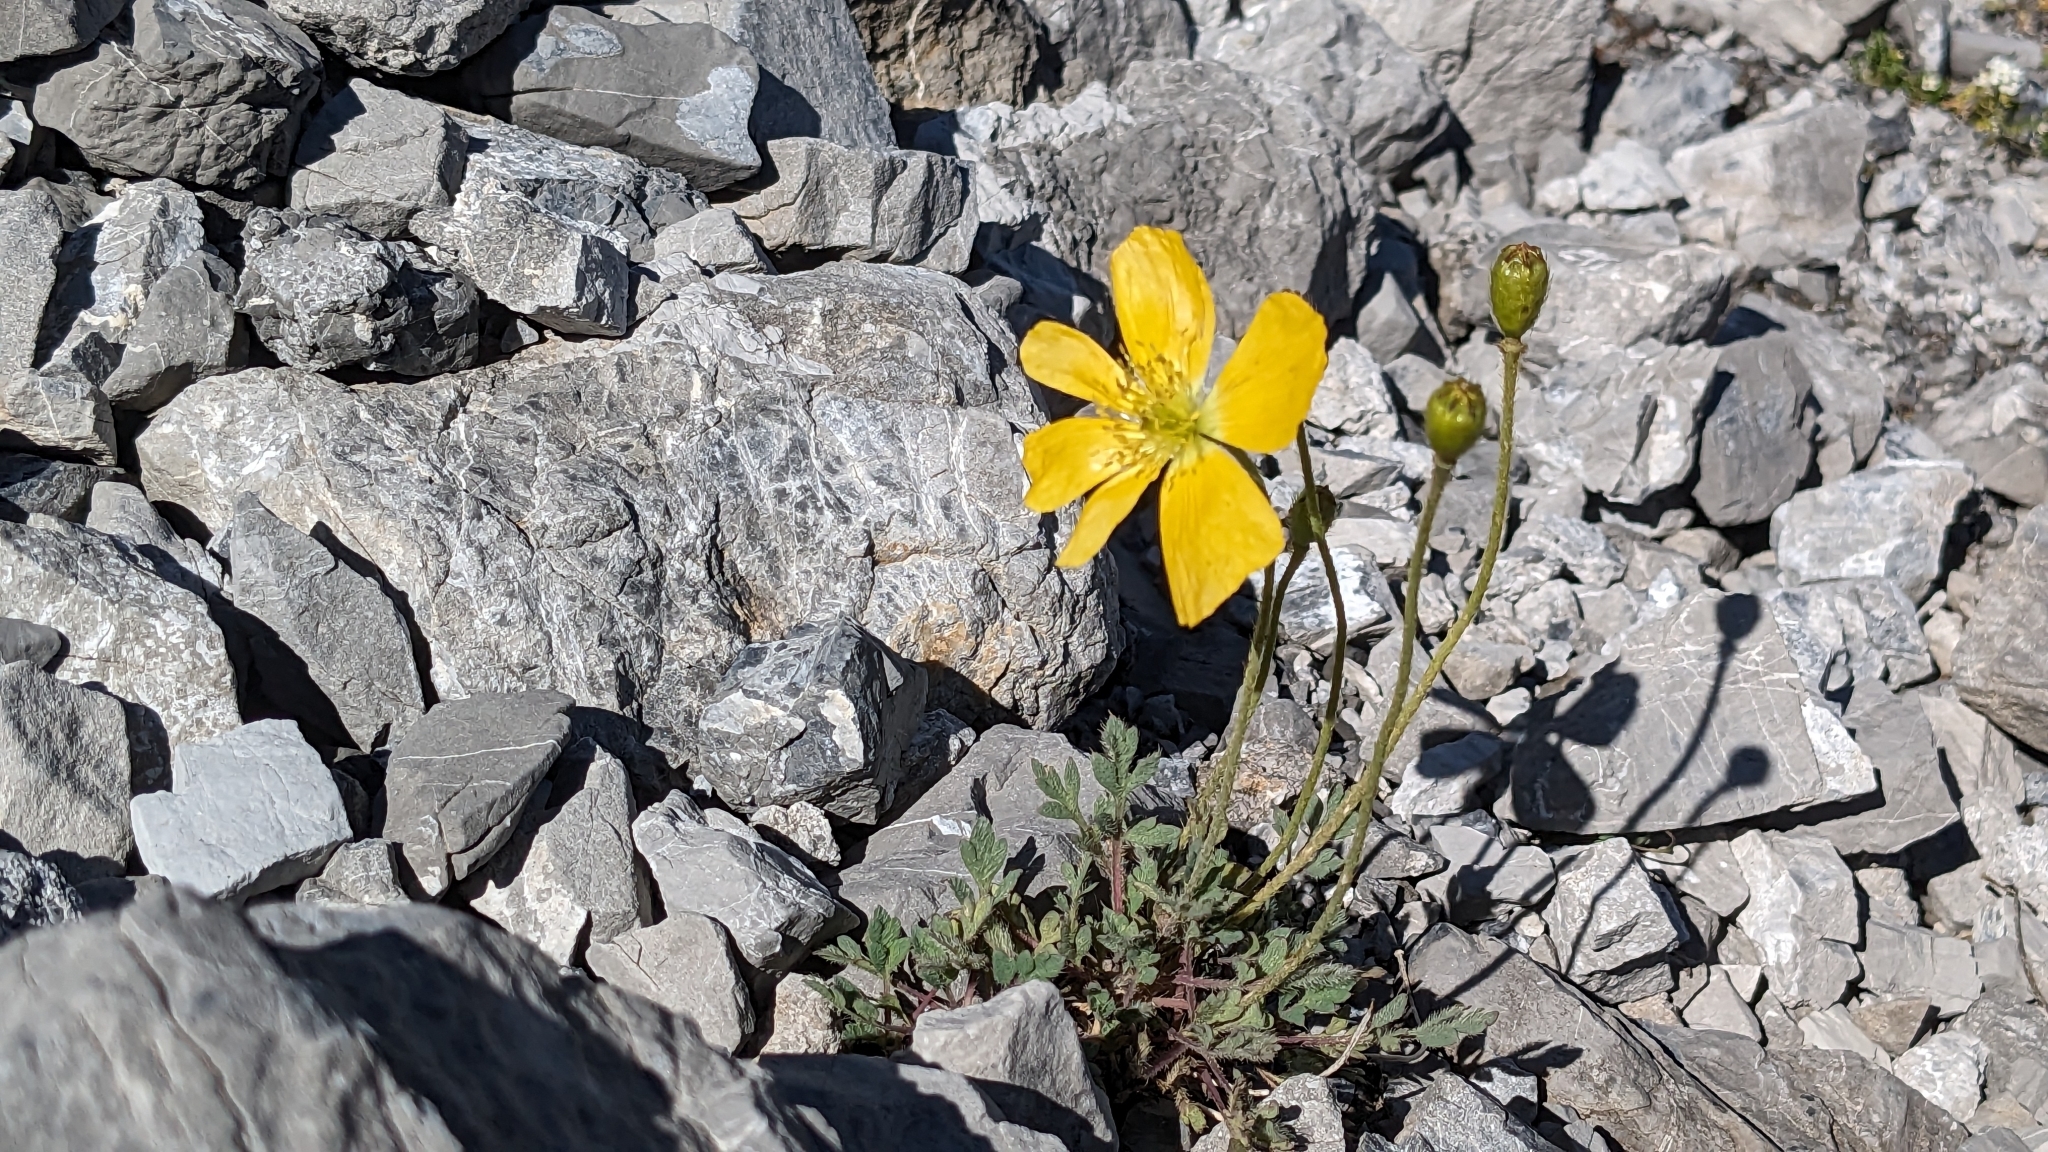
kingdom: Plantae
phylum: Tracheophyta
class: Magnoliopsida
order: Ranunculales
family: Papaveraceae
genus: Papaver
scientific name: Papaver alpinum
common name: Austrian poppy
